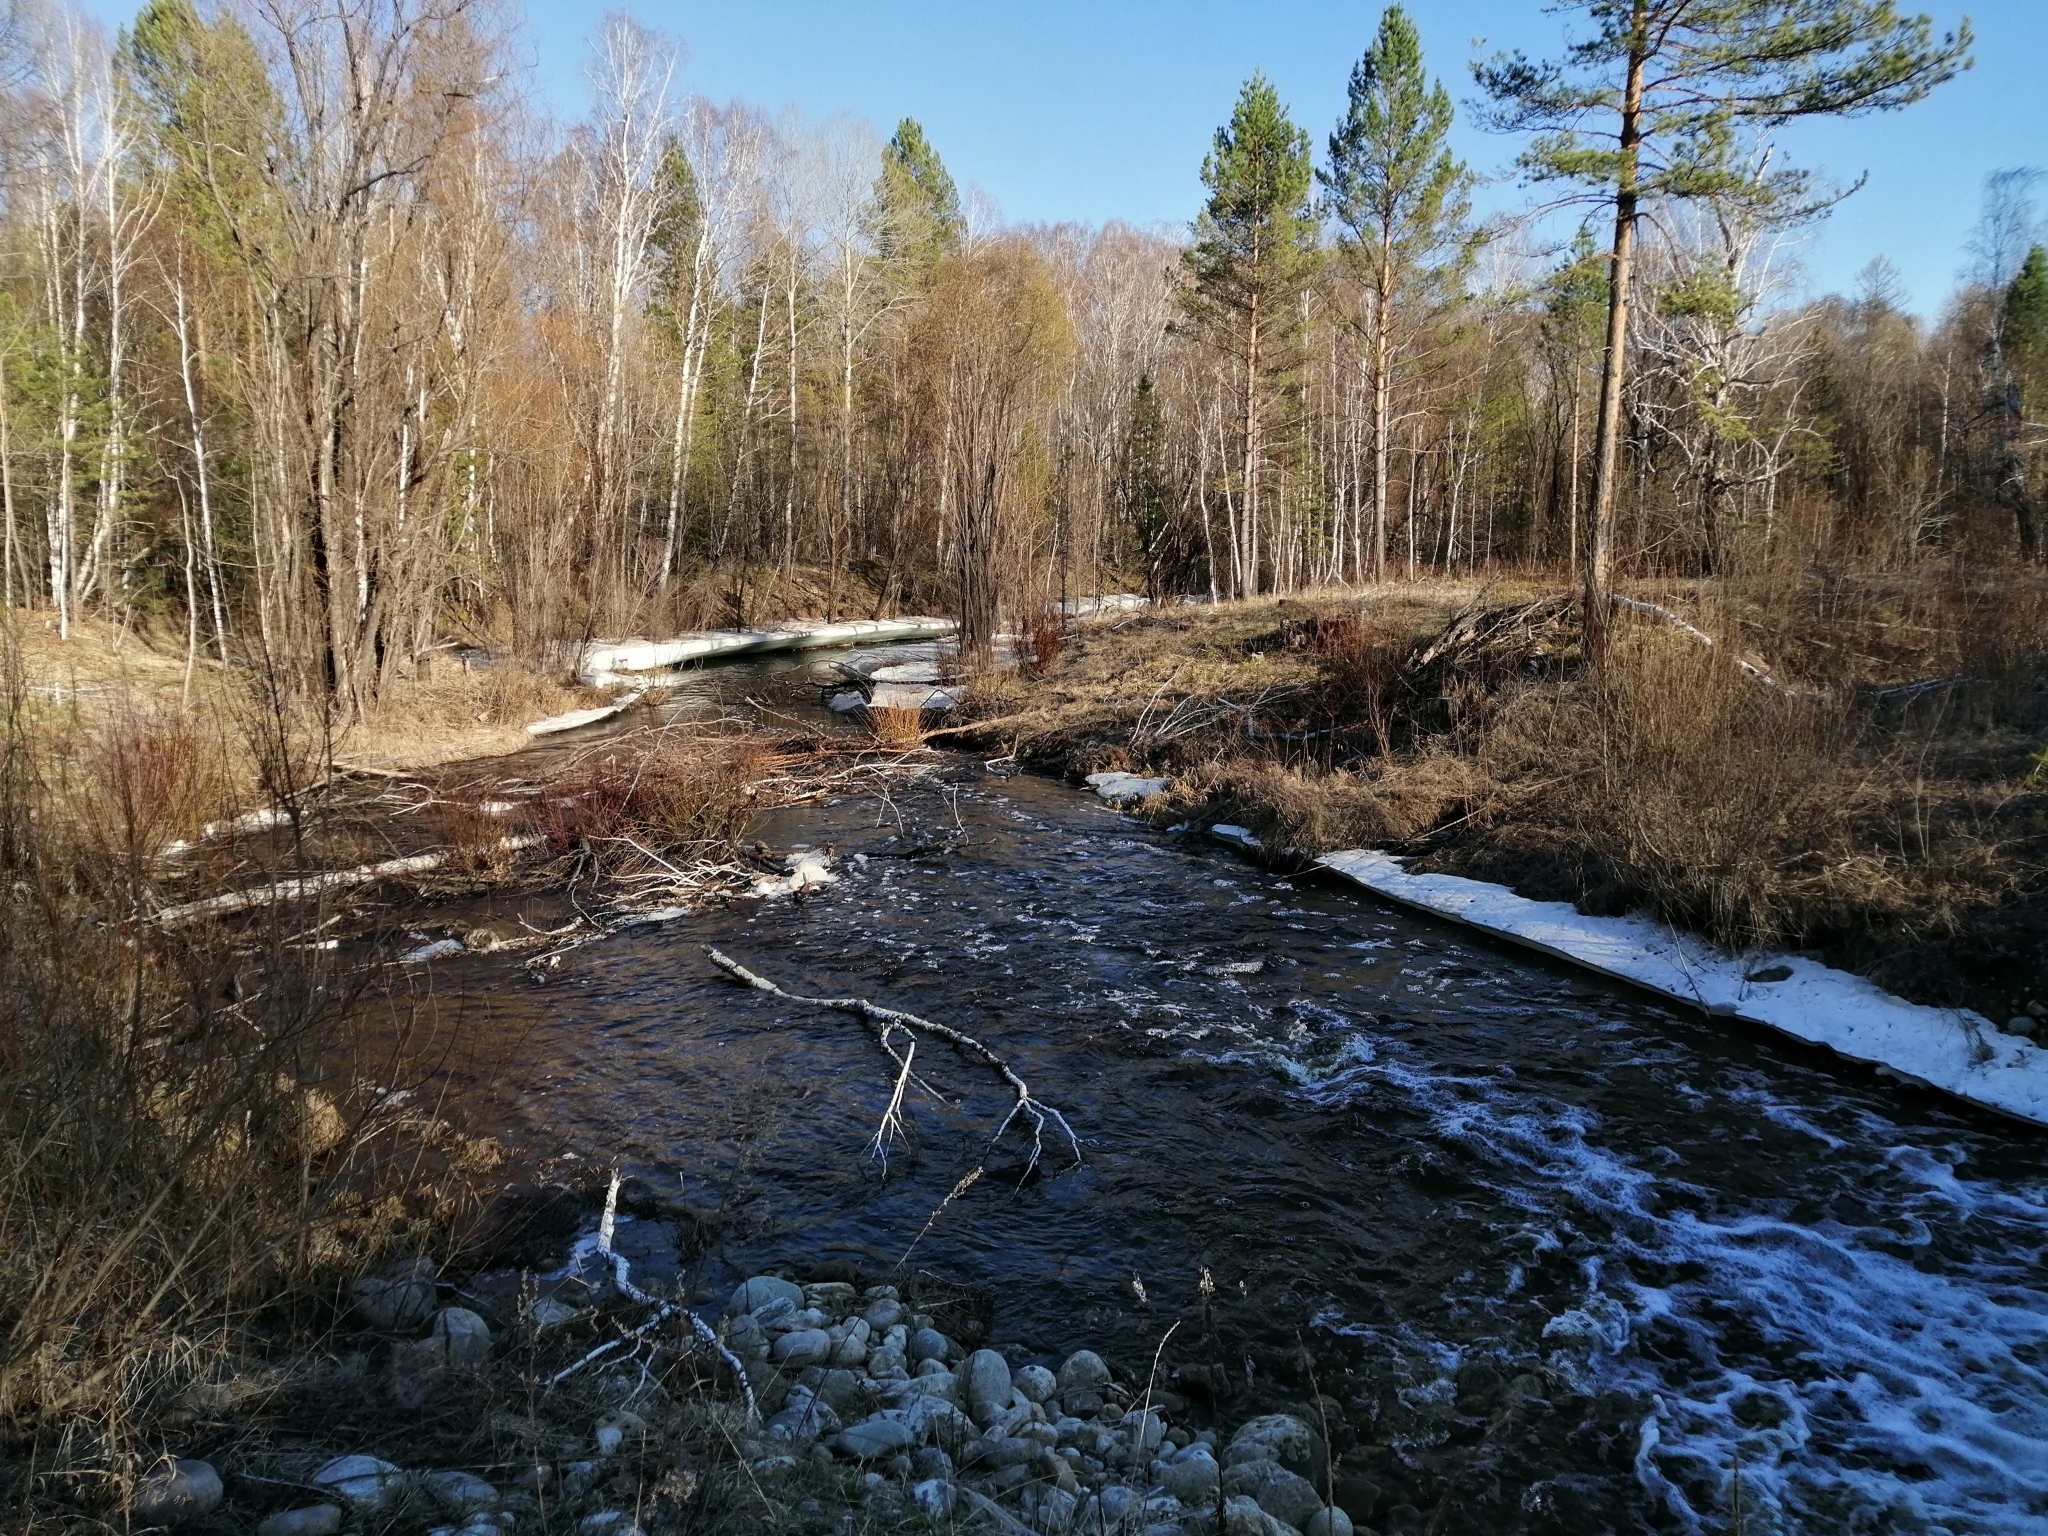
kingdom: Plantae
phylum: Tracheophyta
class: Pinopsida
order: Pinales
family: Pinaceae
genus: Pinus
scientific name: Pinus sylvestris
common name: Scots pine
